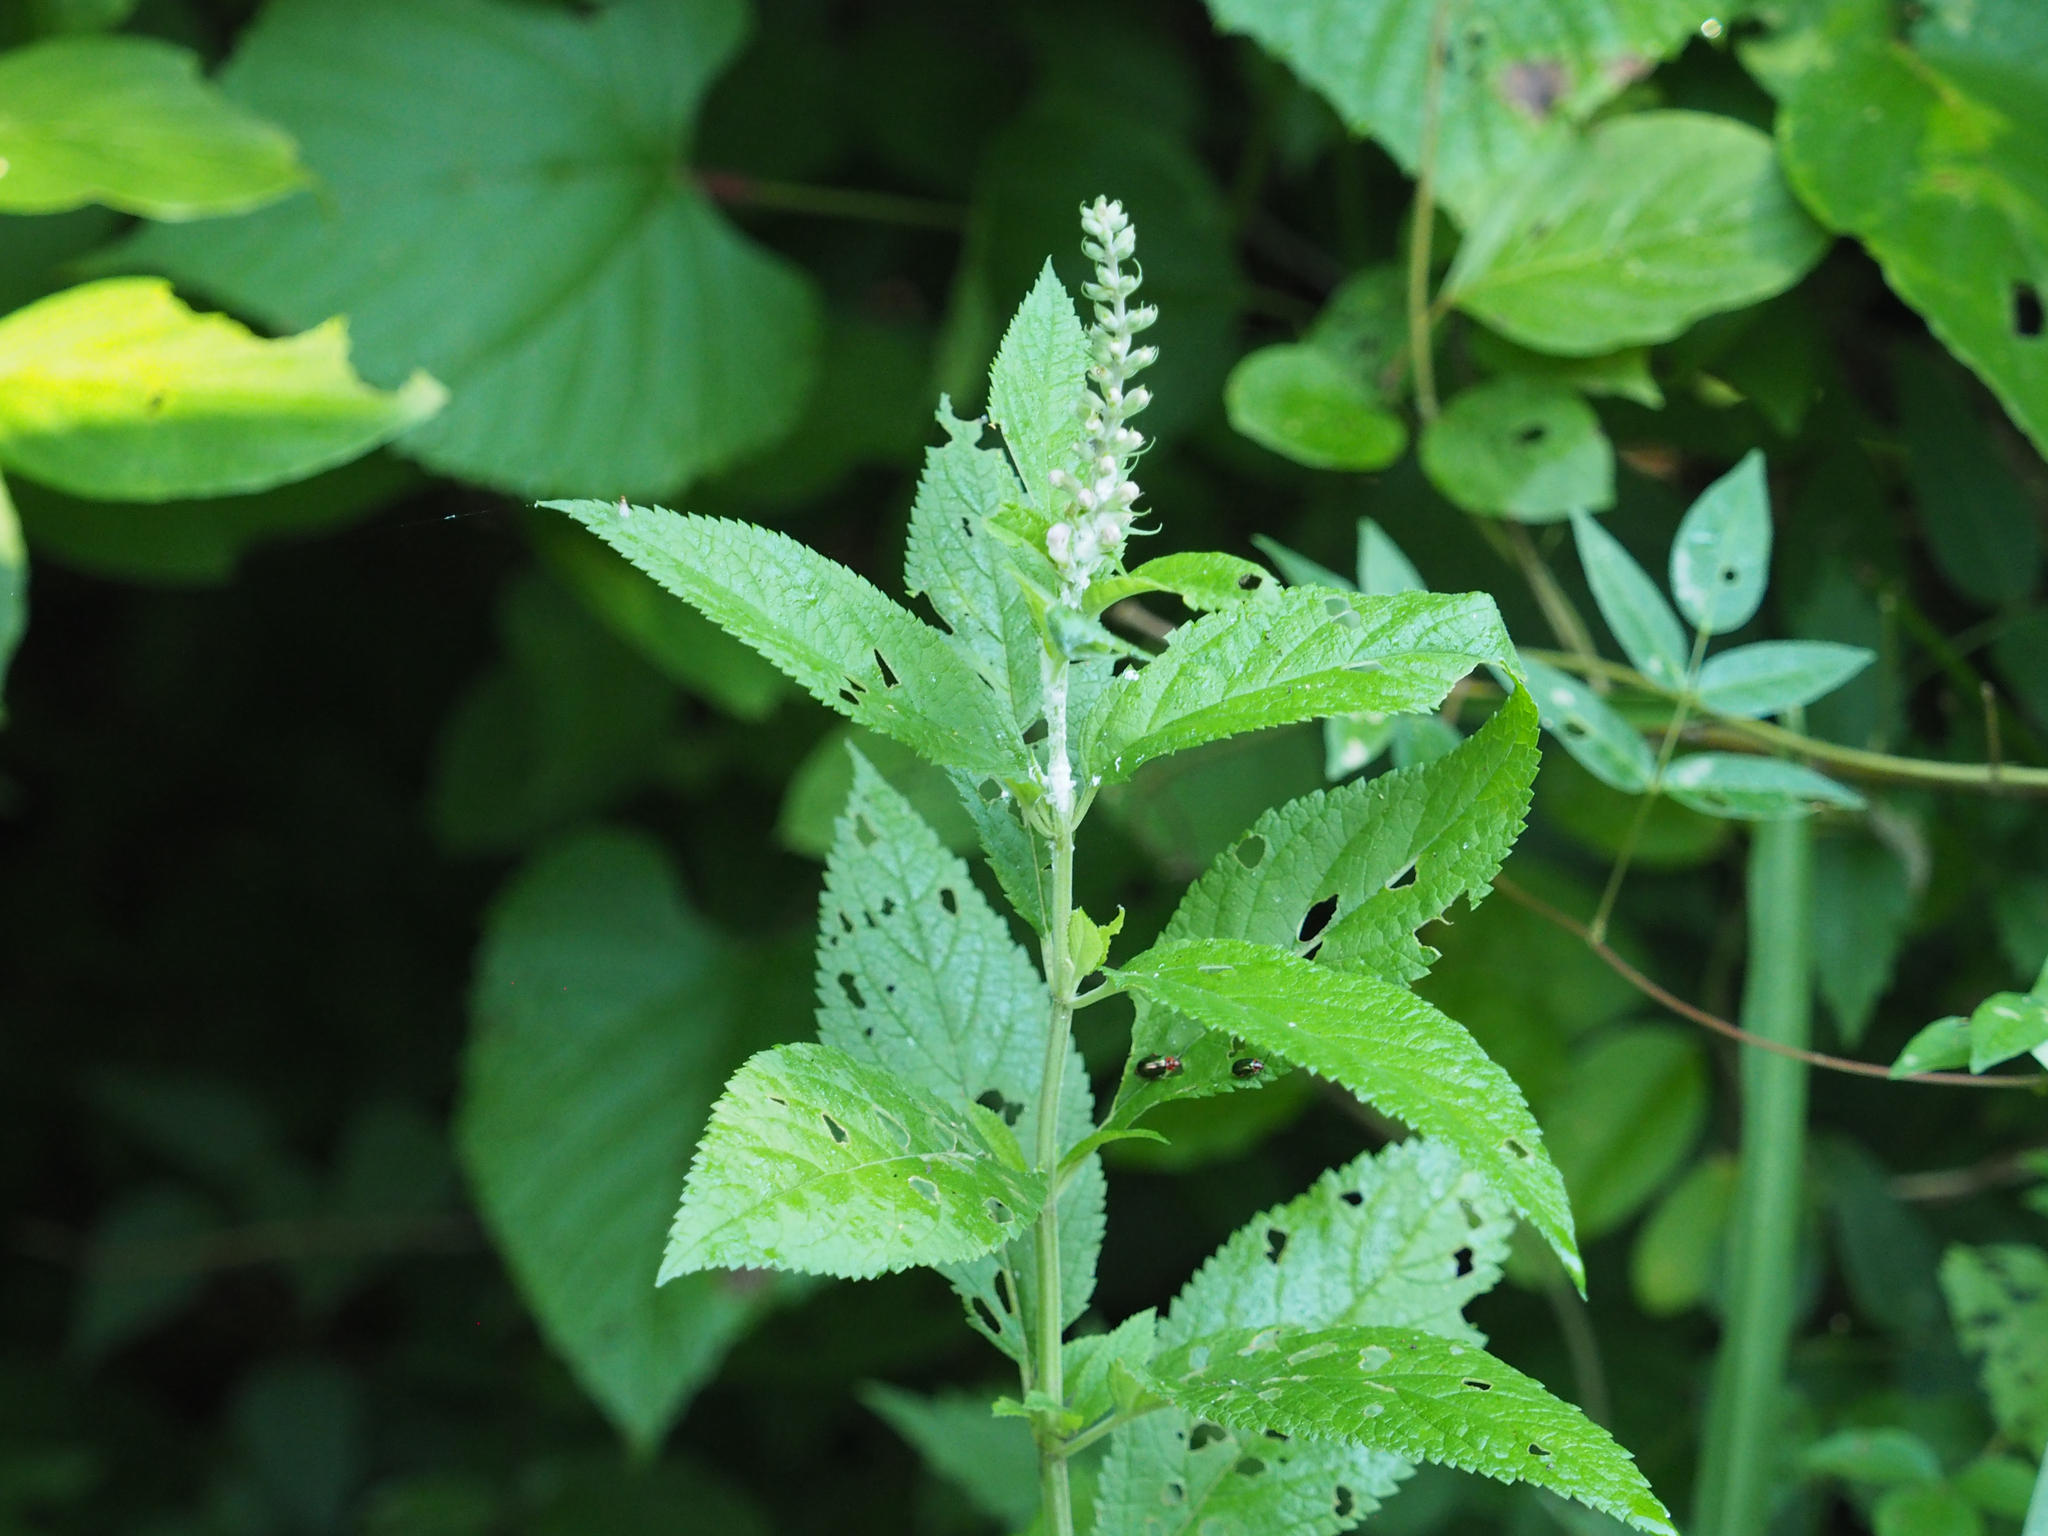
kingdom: Plantae
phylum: Tracheophyta
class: Magnoliopsida
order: Lamiales
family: Lamiaceae
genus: Teucrium
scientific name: Teucrium canadense
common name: American germander
